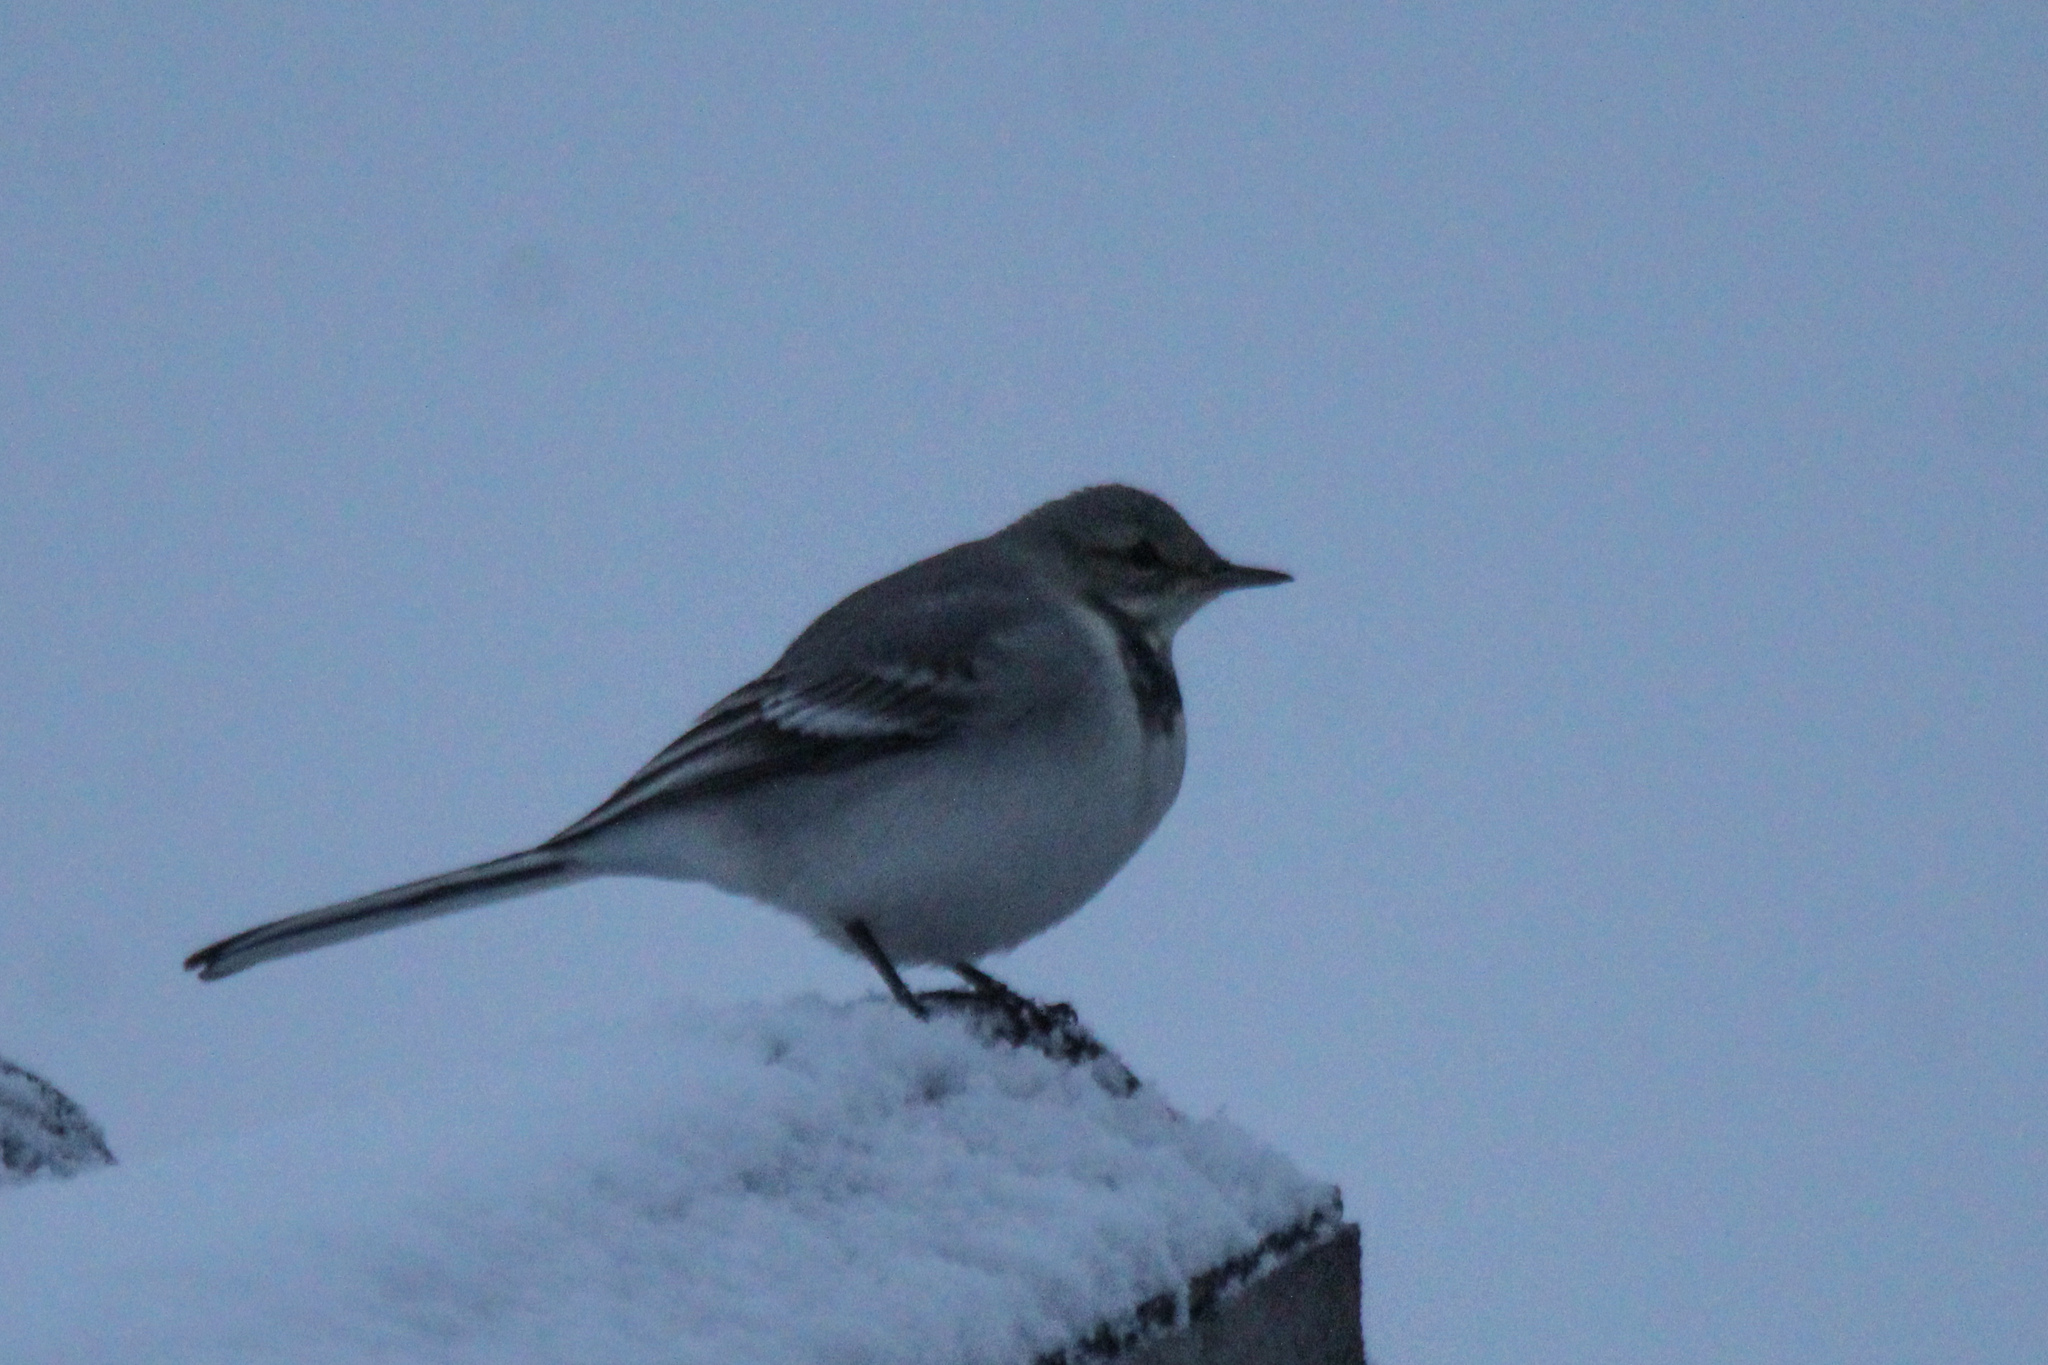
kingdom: Animalia
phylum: Chordata
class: Aves
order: Passeriformes
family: Motacillidae
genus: Motacilla
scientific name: Motacilla alba
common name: White wagtail
